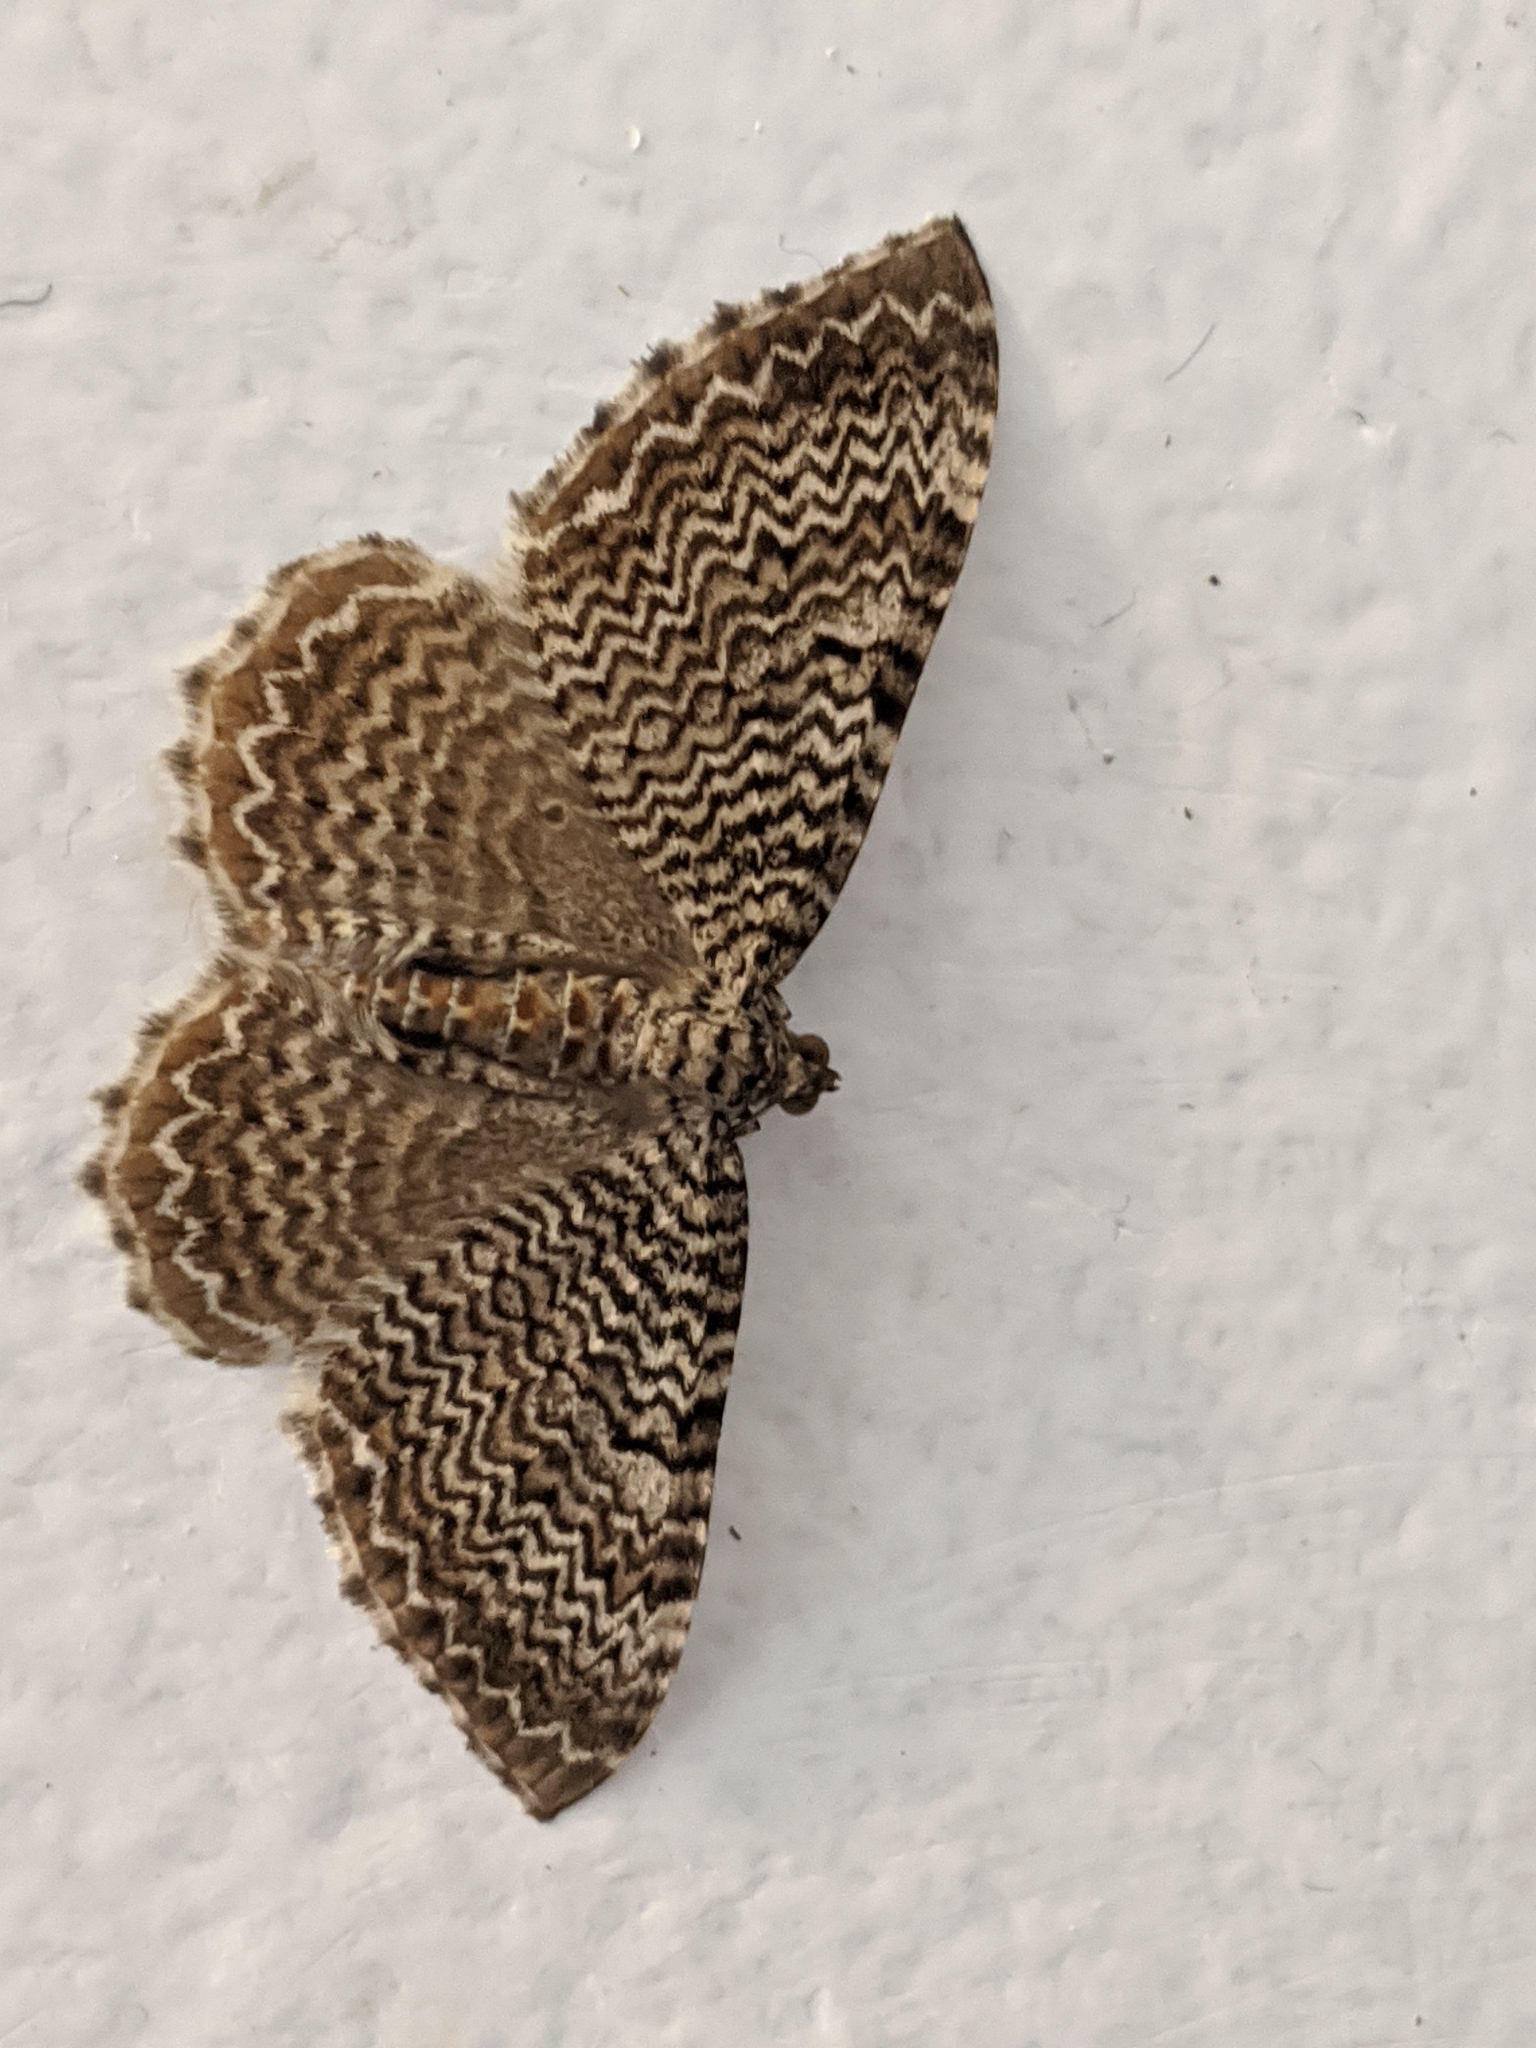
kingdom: Animalia
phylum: Arthropoda
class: Insecta
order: Lepidoptera
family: Geometridae
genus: Rheumaptera
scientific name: Rheumaptera prunivorata
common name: Cherry scallop shell moth
